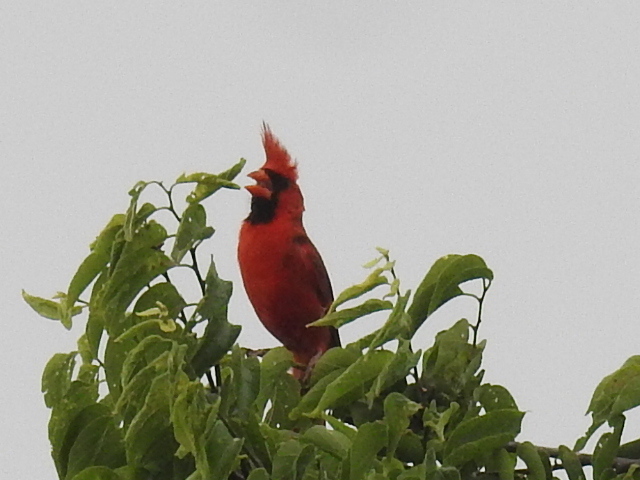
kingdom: Animalia
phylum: Chordata
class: Aves
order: Passeriformes
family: Cardinalidae
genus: Cardinalis
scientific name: Cardinalis cardinalis
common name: Northern cardinal
